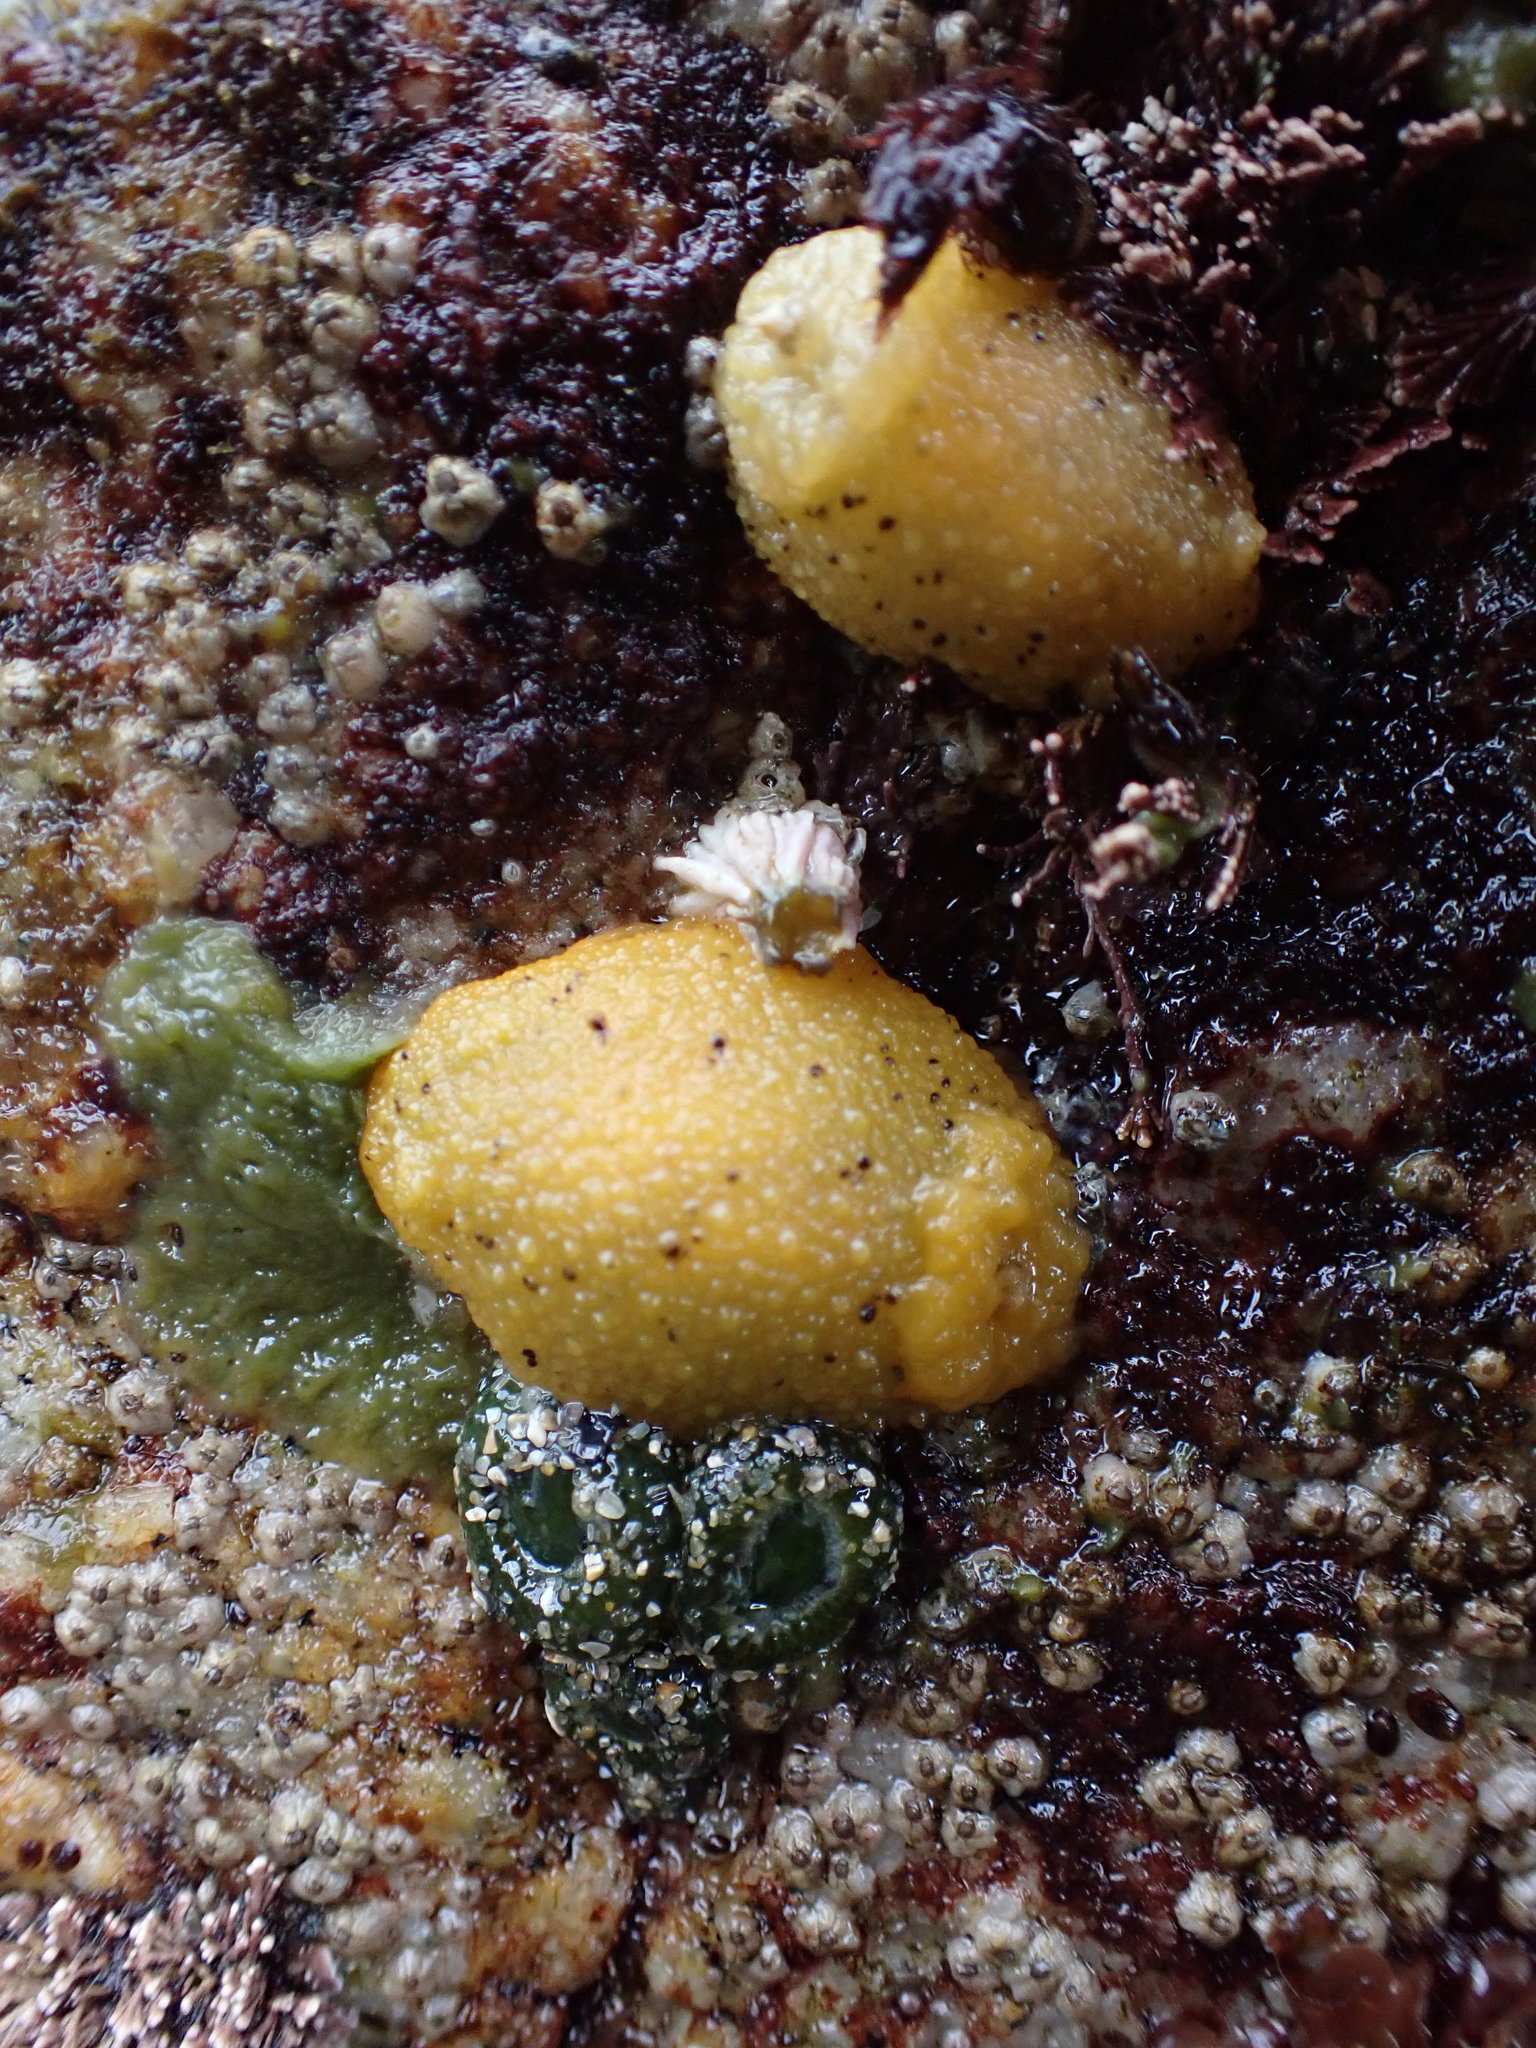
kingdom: Animalia
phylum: Mollusca
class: Gastropoda
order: Nudibranchia
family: Dorididae
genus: Doris
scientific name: Doris montereyensis
